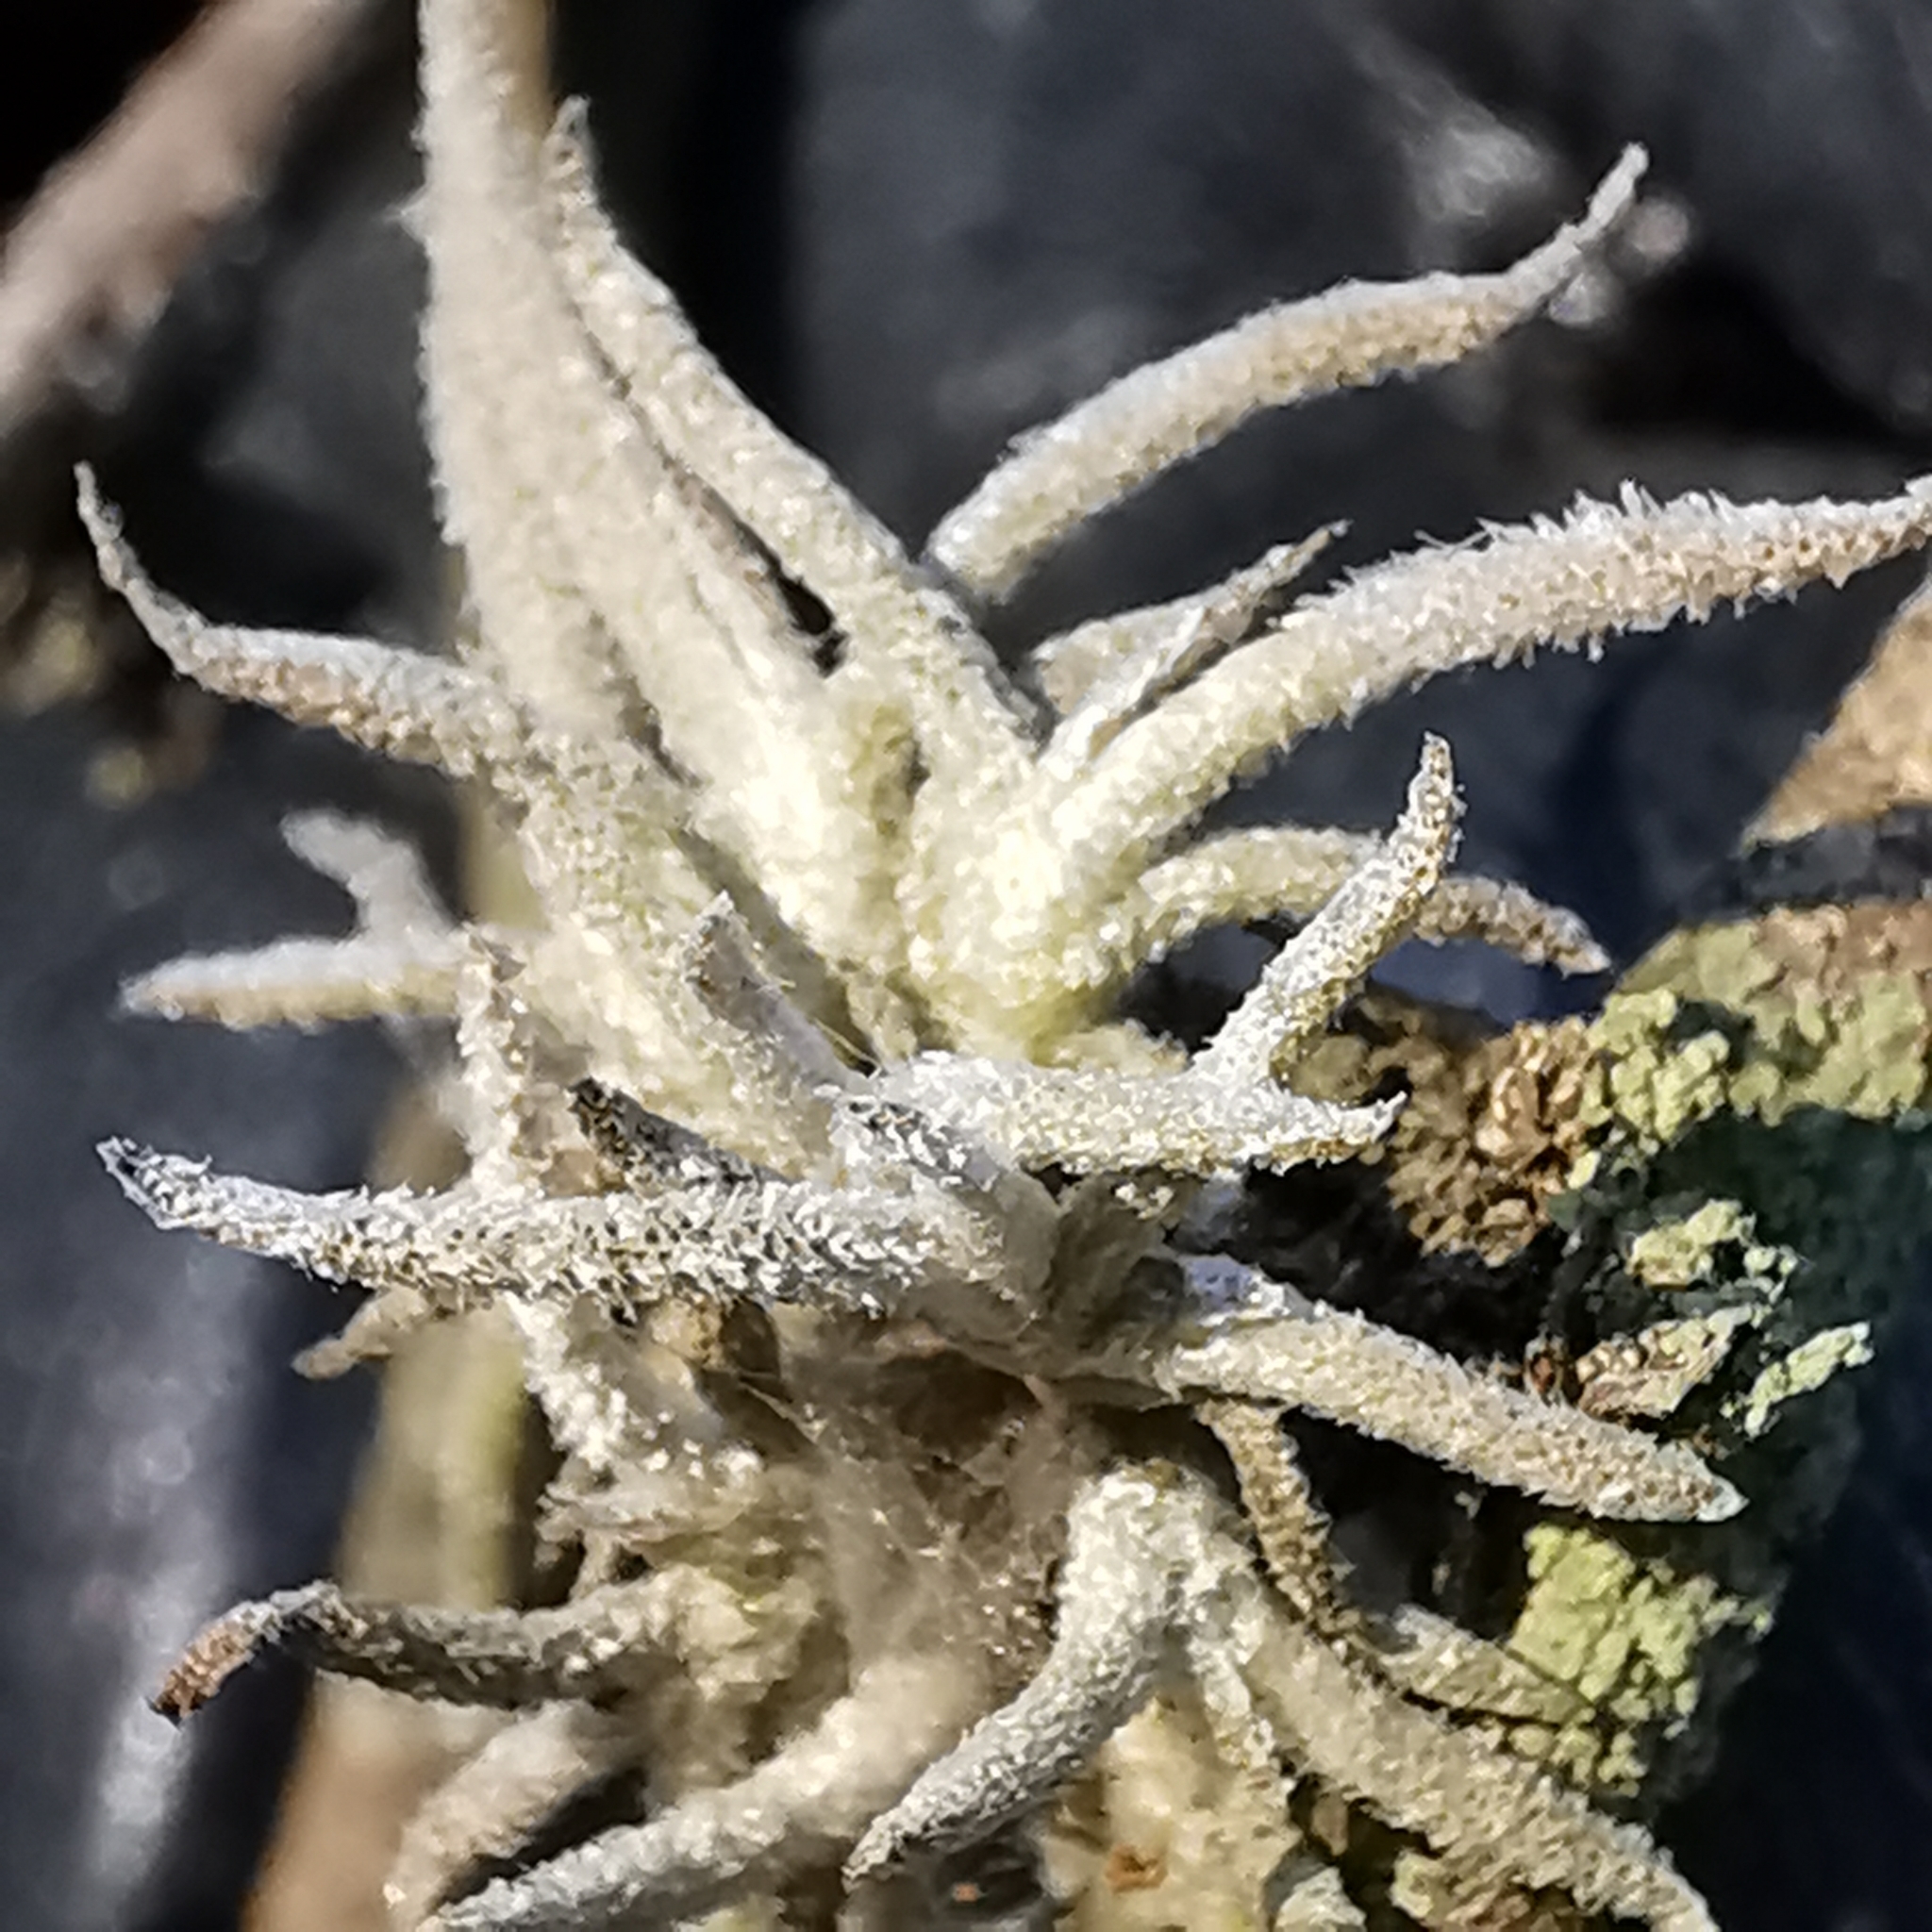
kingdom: Plantae
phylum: Tracheophyta
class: Liliopsida
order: Poales
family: Bromeliaceae
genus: Tillandsia
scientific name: Tillandsia recurvata
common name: Small ballmoss
